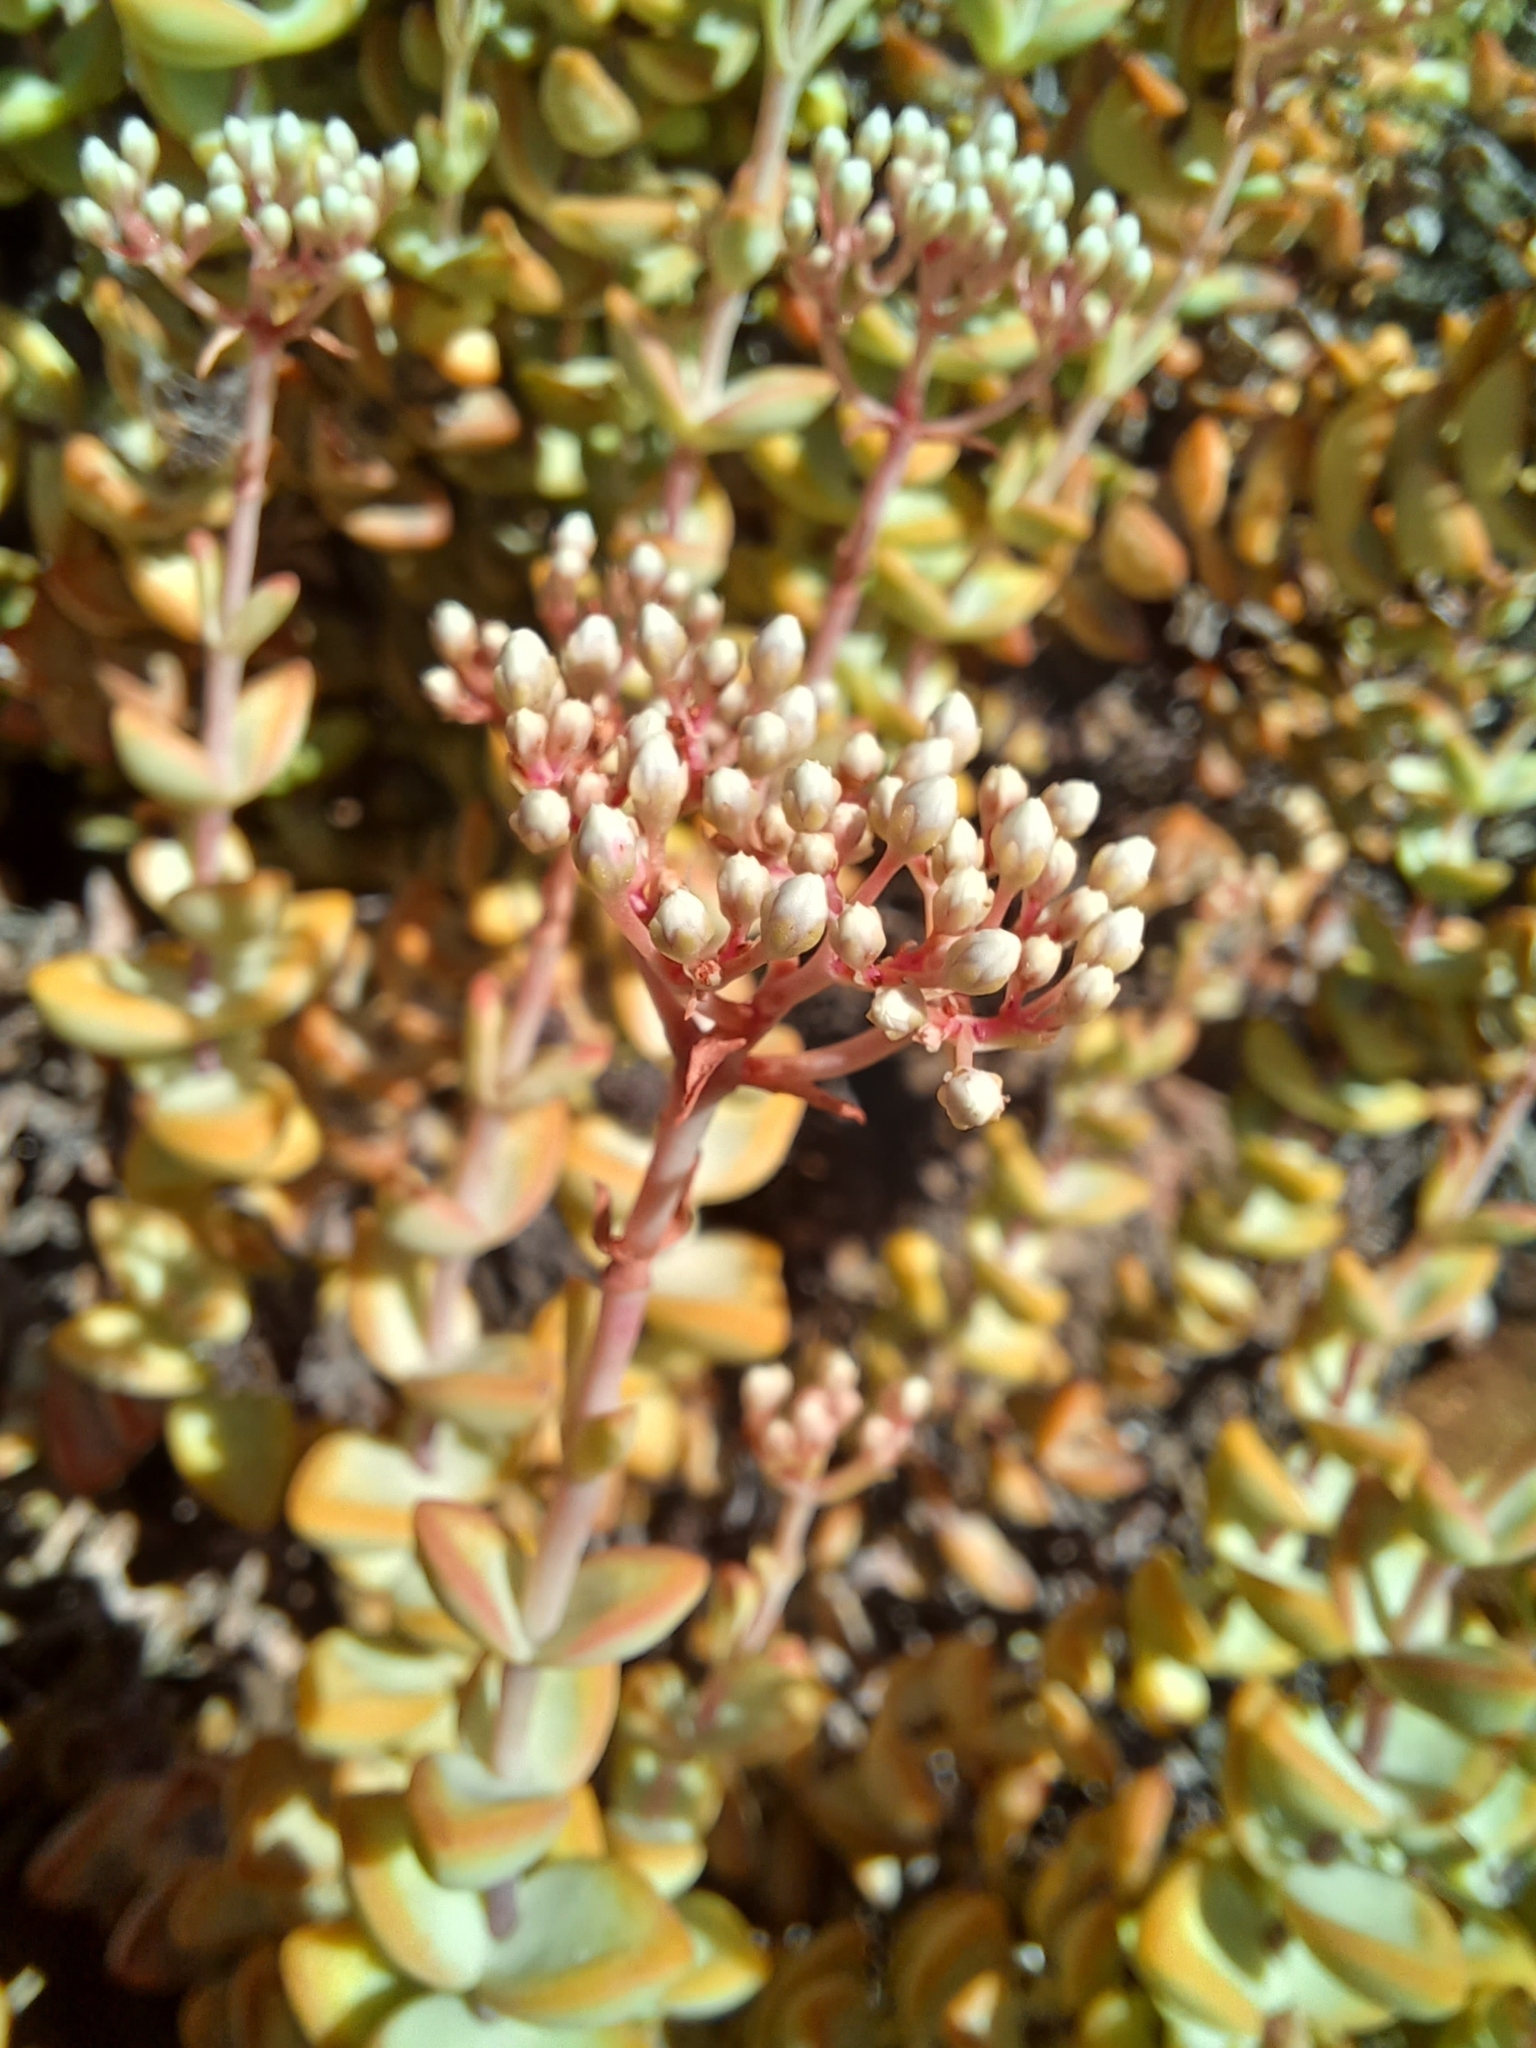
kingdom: Plantae
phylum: Tracheophyta
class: Magnoliopsida
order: Saxifragales
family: Crassulaceae
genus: Crassula
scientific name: Crassula rupestris
